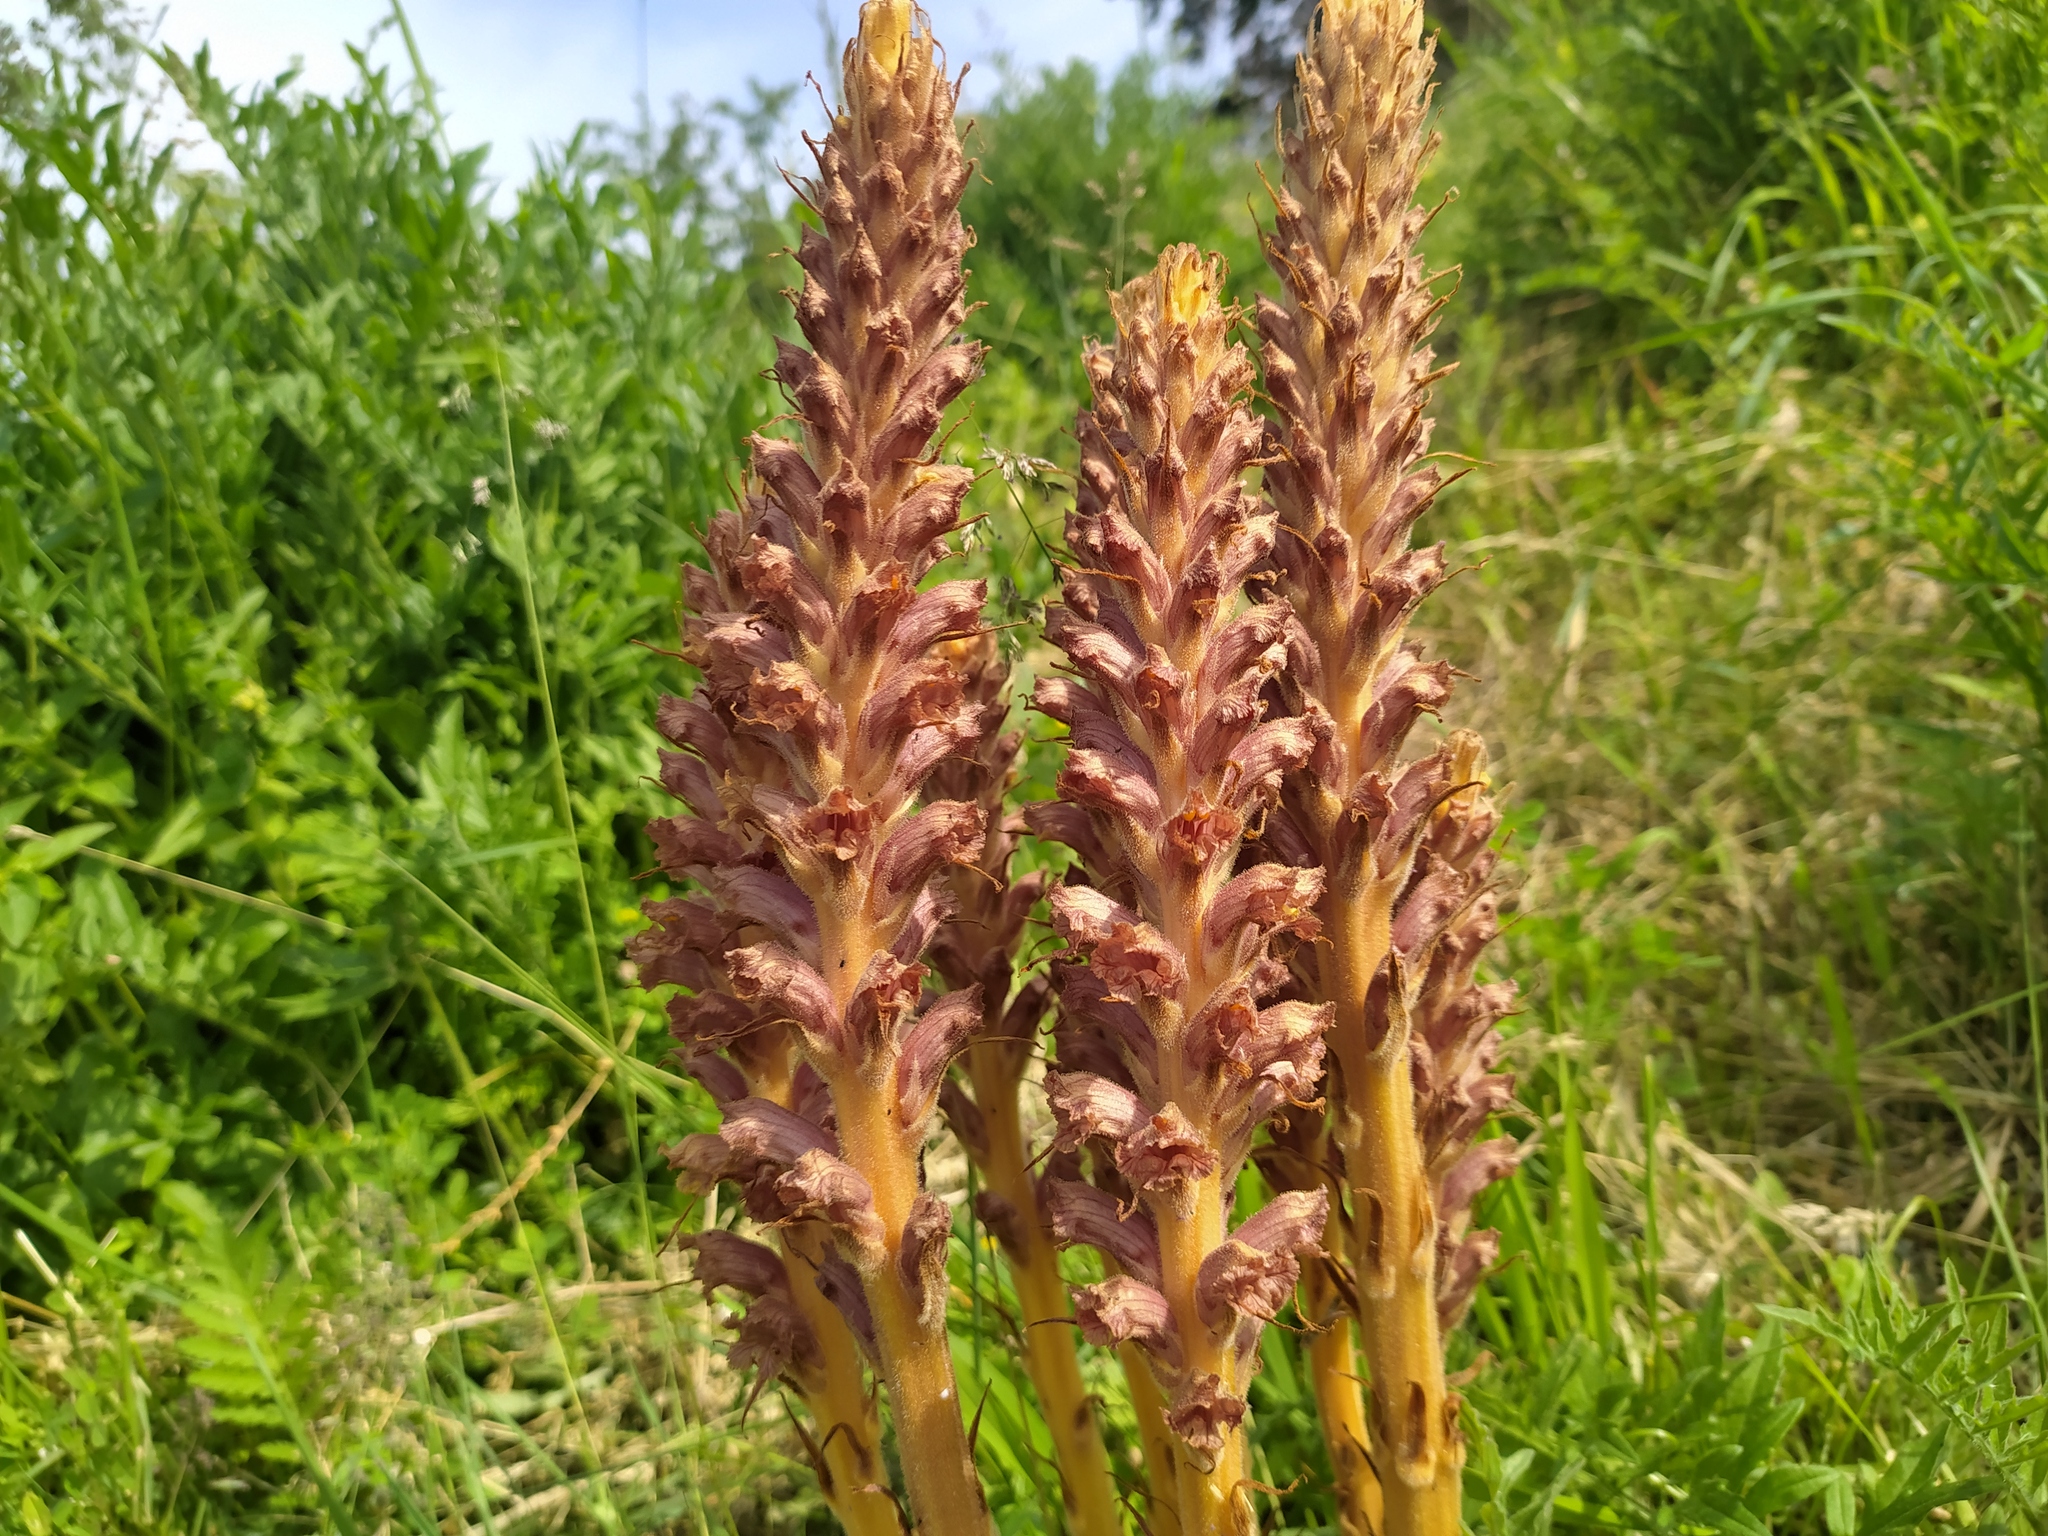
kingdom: Plantae
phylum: Tracheophyta
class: Magnoliopsida
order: Lamiales
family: Orobanchaceae
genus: Orobanche
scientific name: Orobanche elatior
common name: Knapweed broomrape
